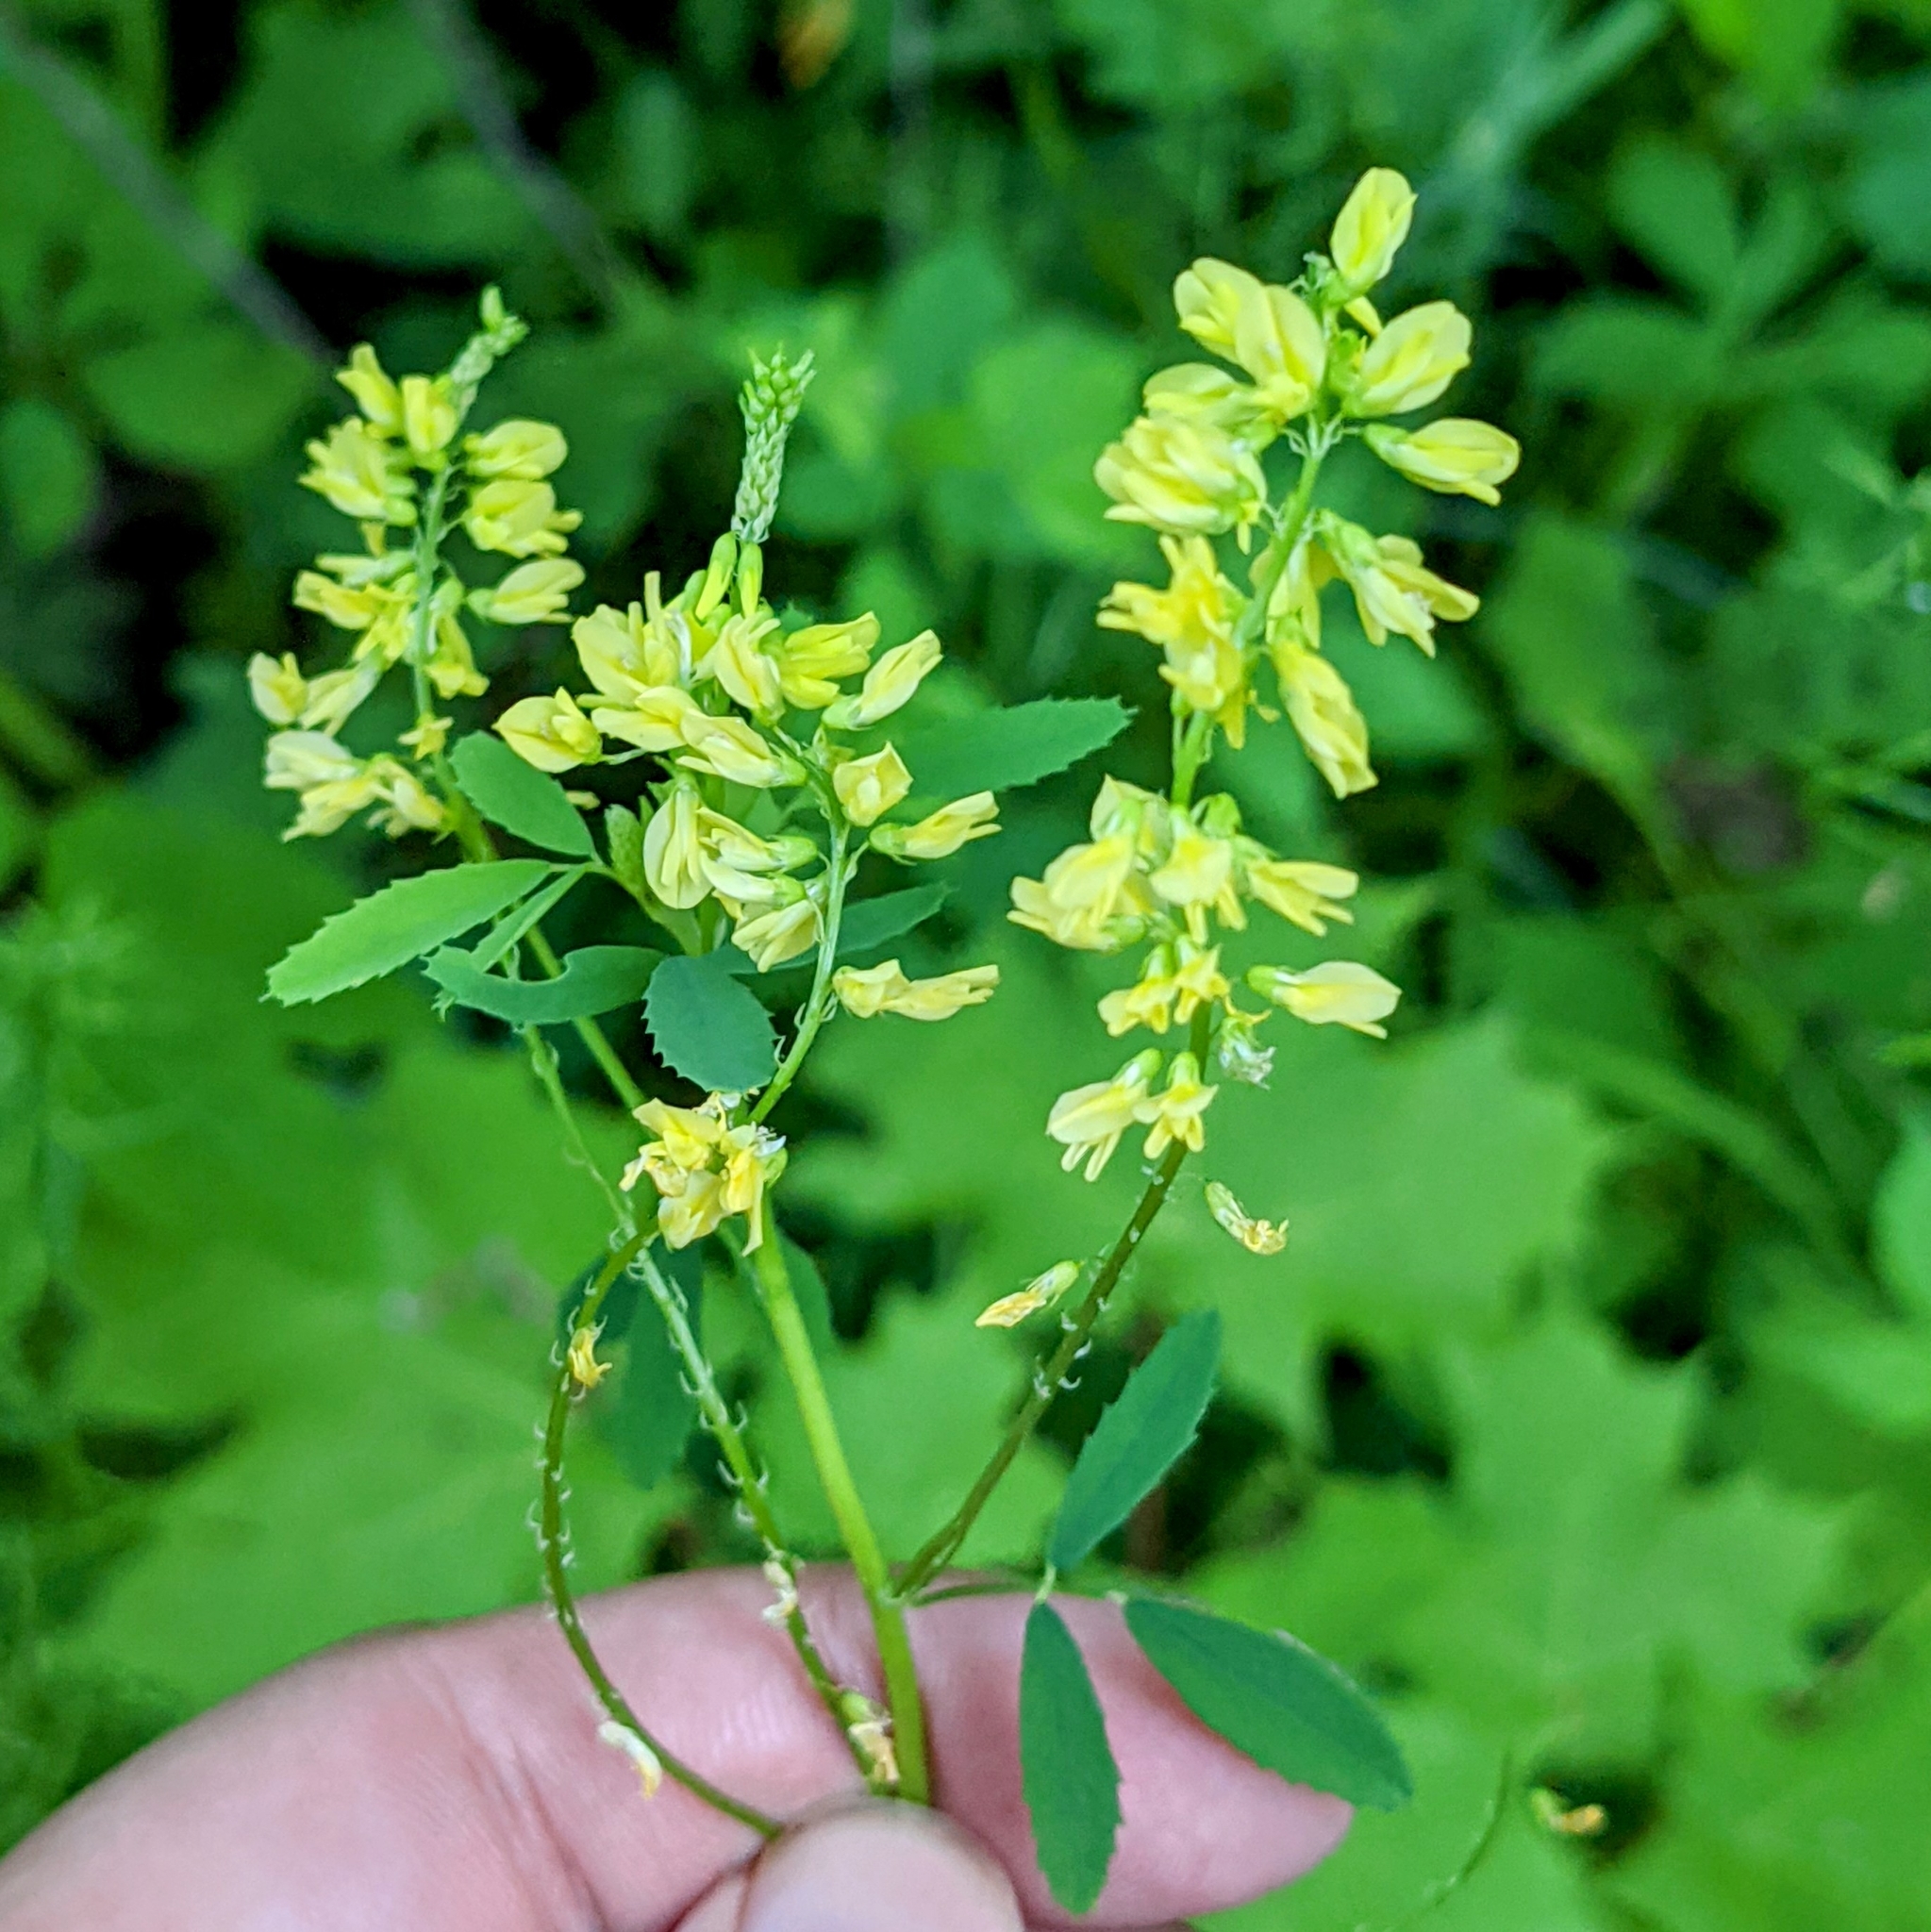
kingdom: Plantae
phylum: Tracheophyta
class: Magnoliopsida
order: Fabales
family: Fabaceae
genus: Melilotus
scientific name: Melilotus officinalis
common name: Sweetclover
